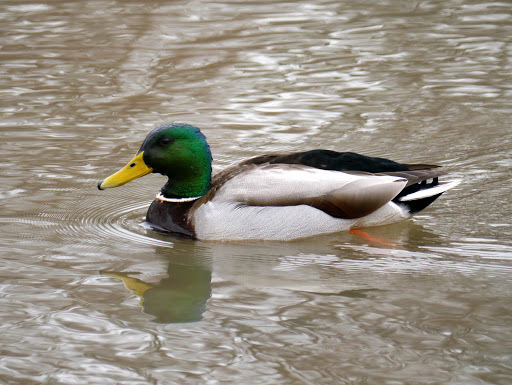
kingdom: Animalia
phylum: Chordata
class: Aves
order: Anseriformes
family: Anatidae
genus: Anas
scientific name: Anas platyrhynchos
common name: Mallard
